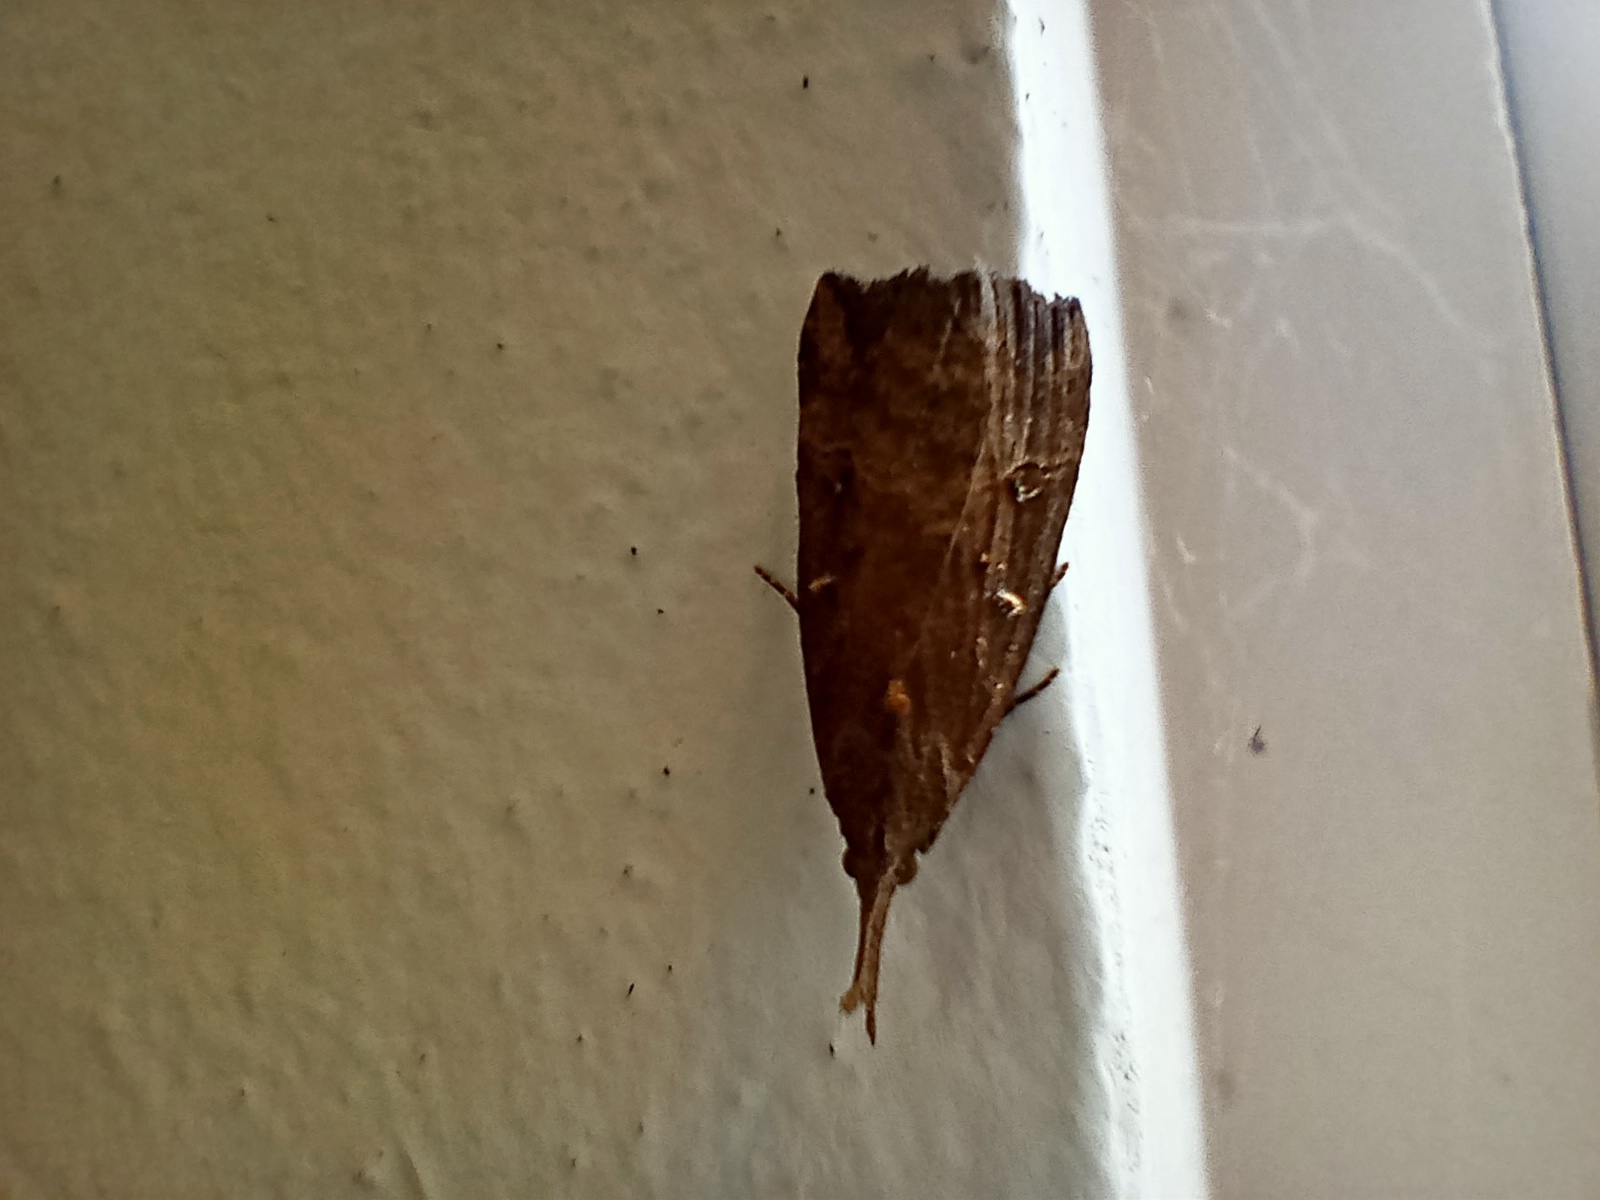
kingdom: Animalia
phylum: Arthropoda
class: Insecta
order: Lepidoptera
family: Erebidae
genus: Hypena
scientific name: Hypena rostralis
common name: Buttoned snout
